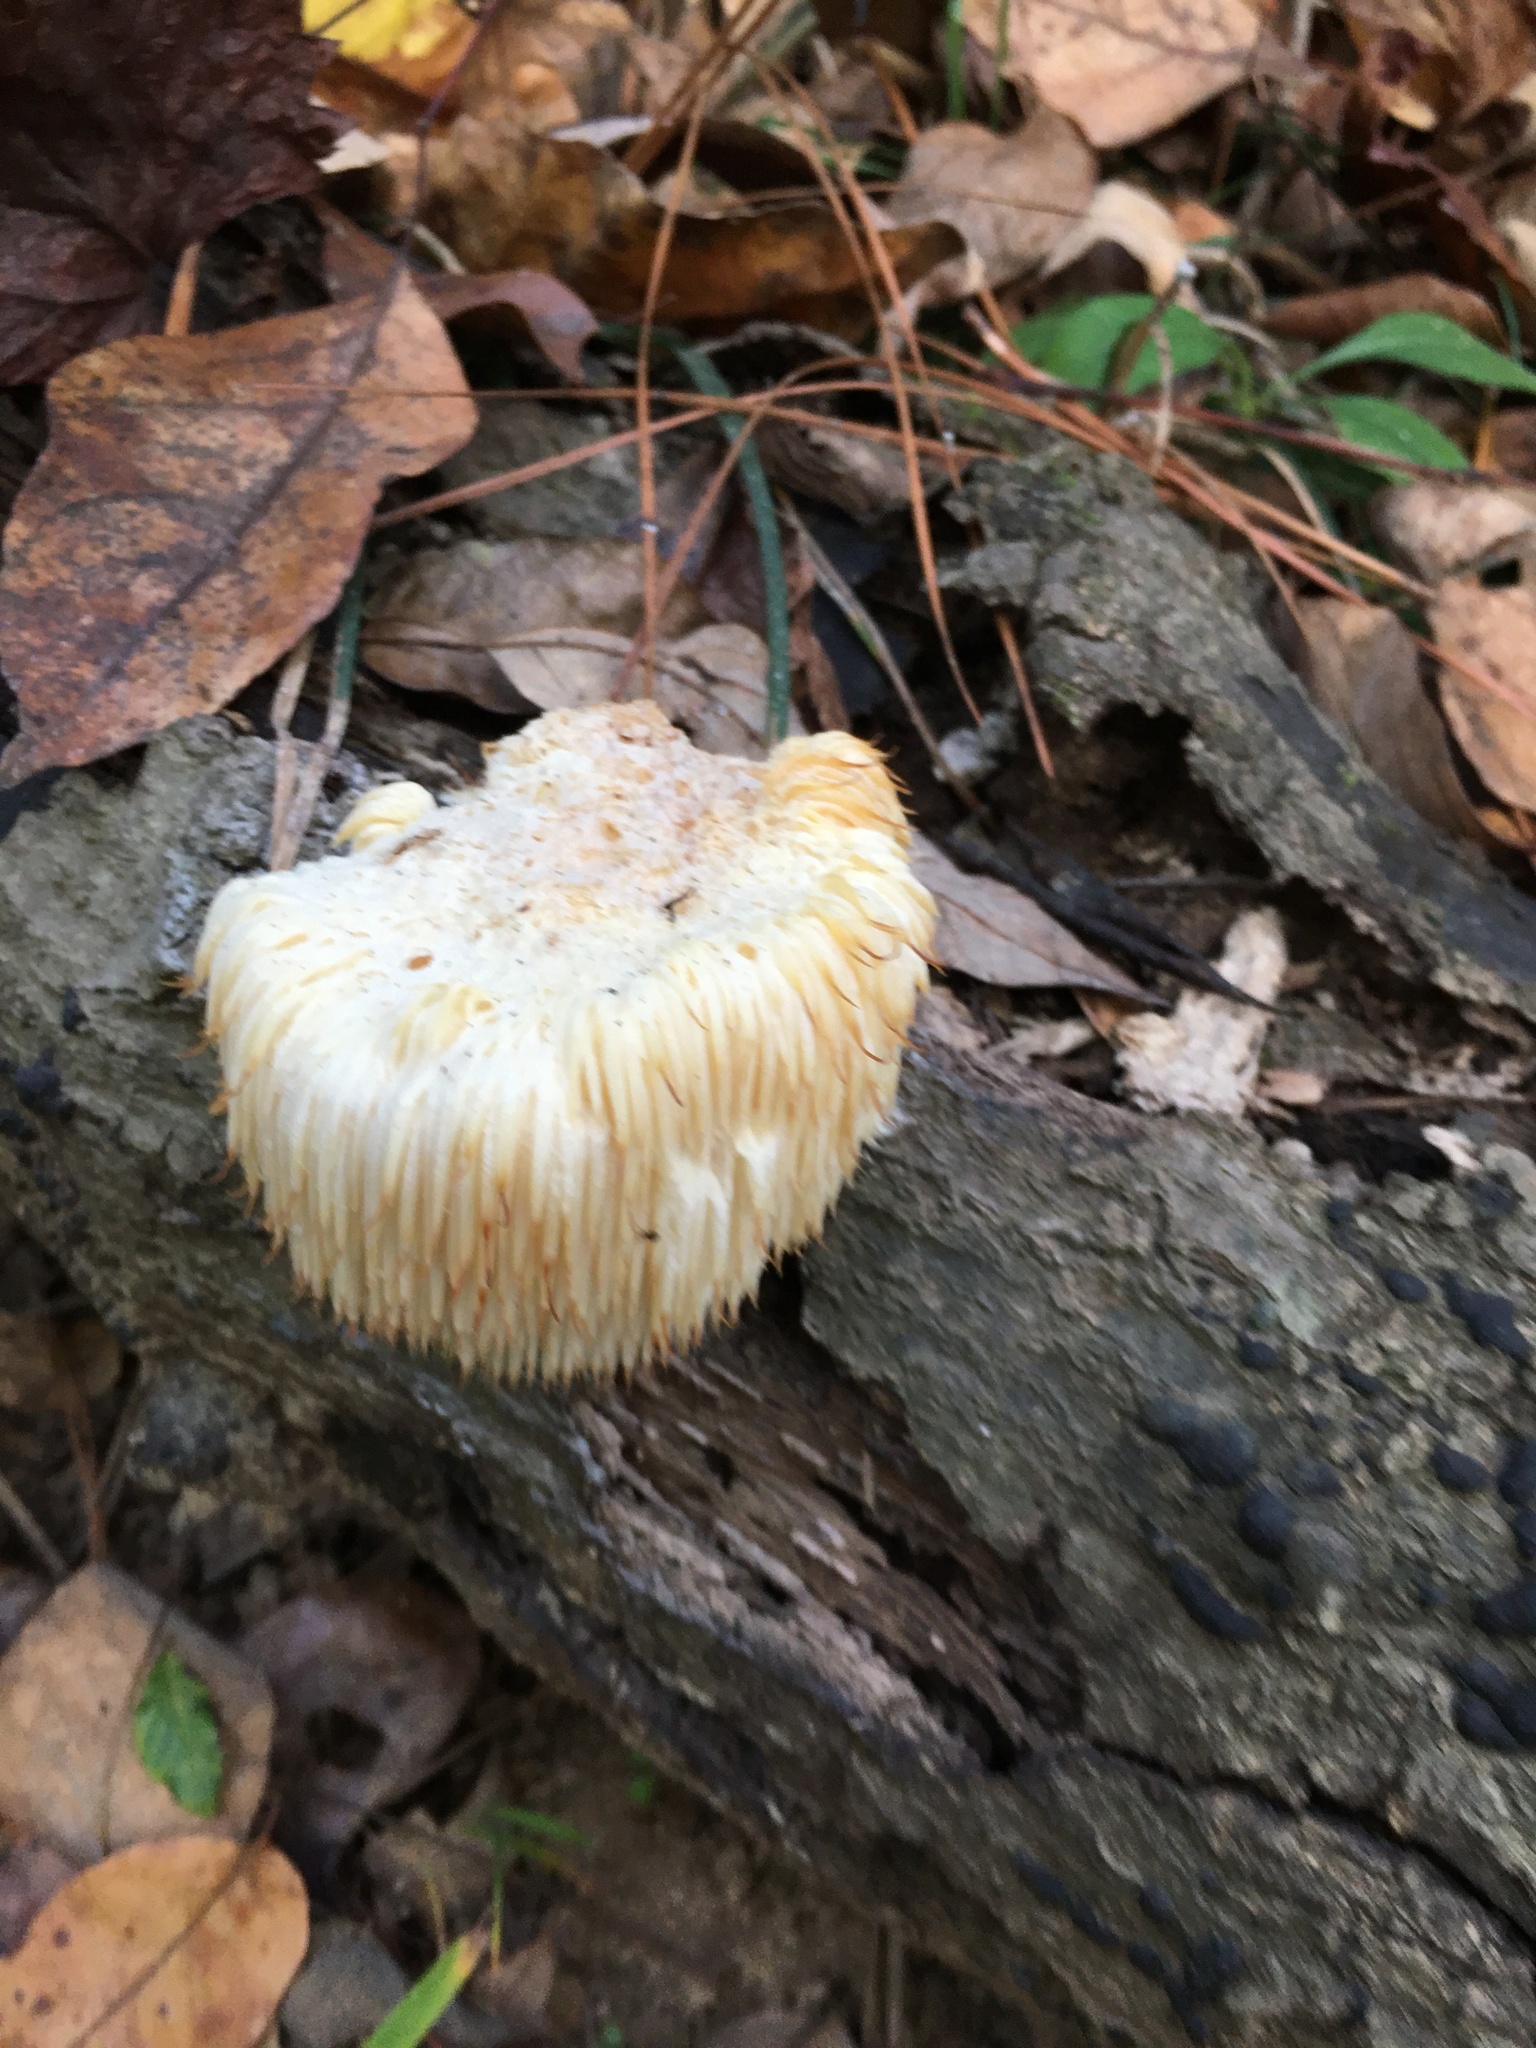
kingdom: Fungi
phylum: Basidiomycota
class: Agaricomycetes
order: Russulales
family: Hericiaceae
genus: Hericium
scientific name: Hericium erinaceus
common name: Bearded tooth
